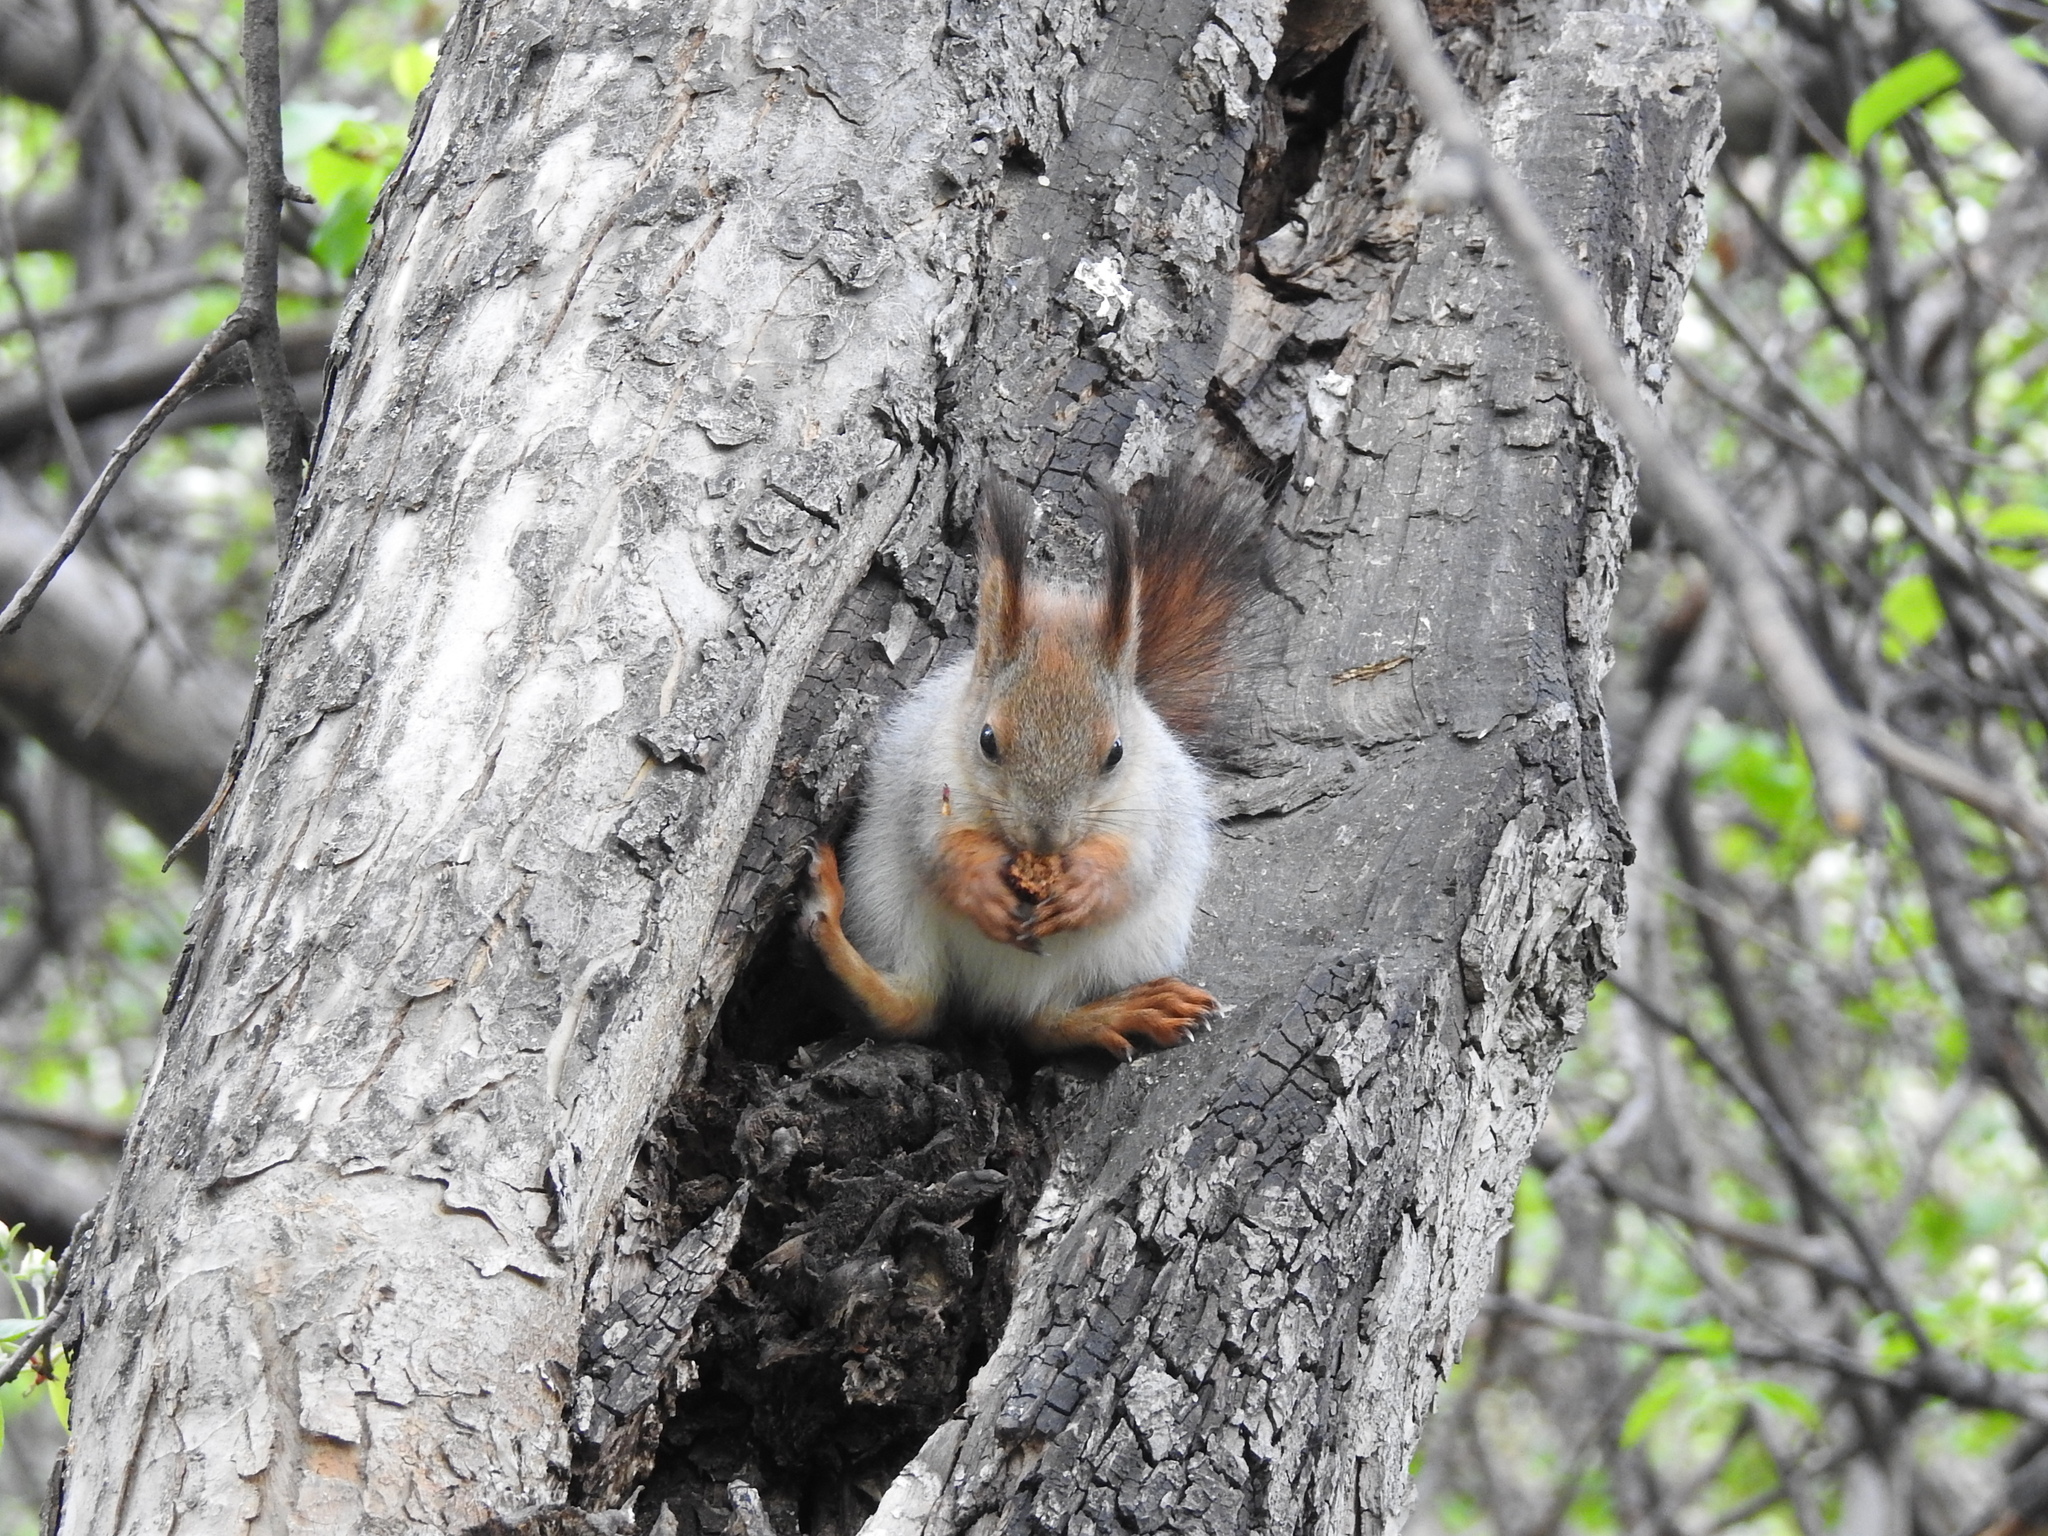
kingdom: Animalia
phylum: Chordata
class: Mammalia
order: Rodentia
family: Sciuridae
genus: Sciurus
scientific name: Sciurus vulgaris
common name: Eurasian red squirrel
